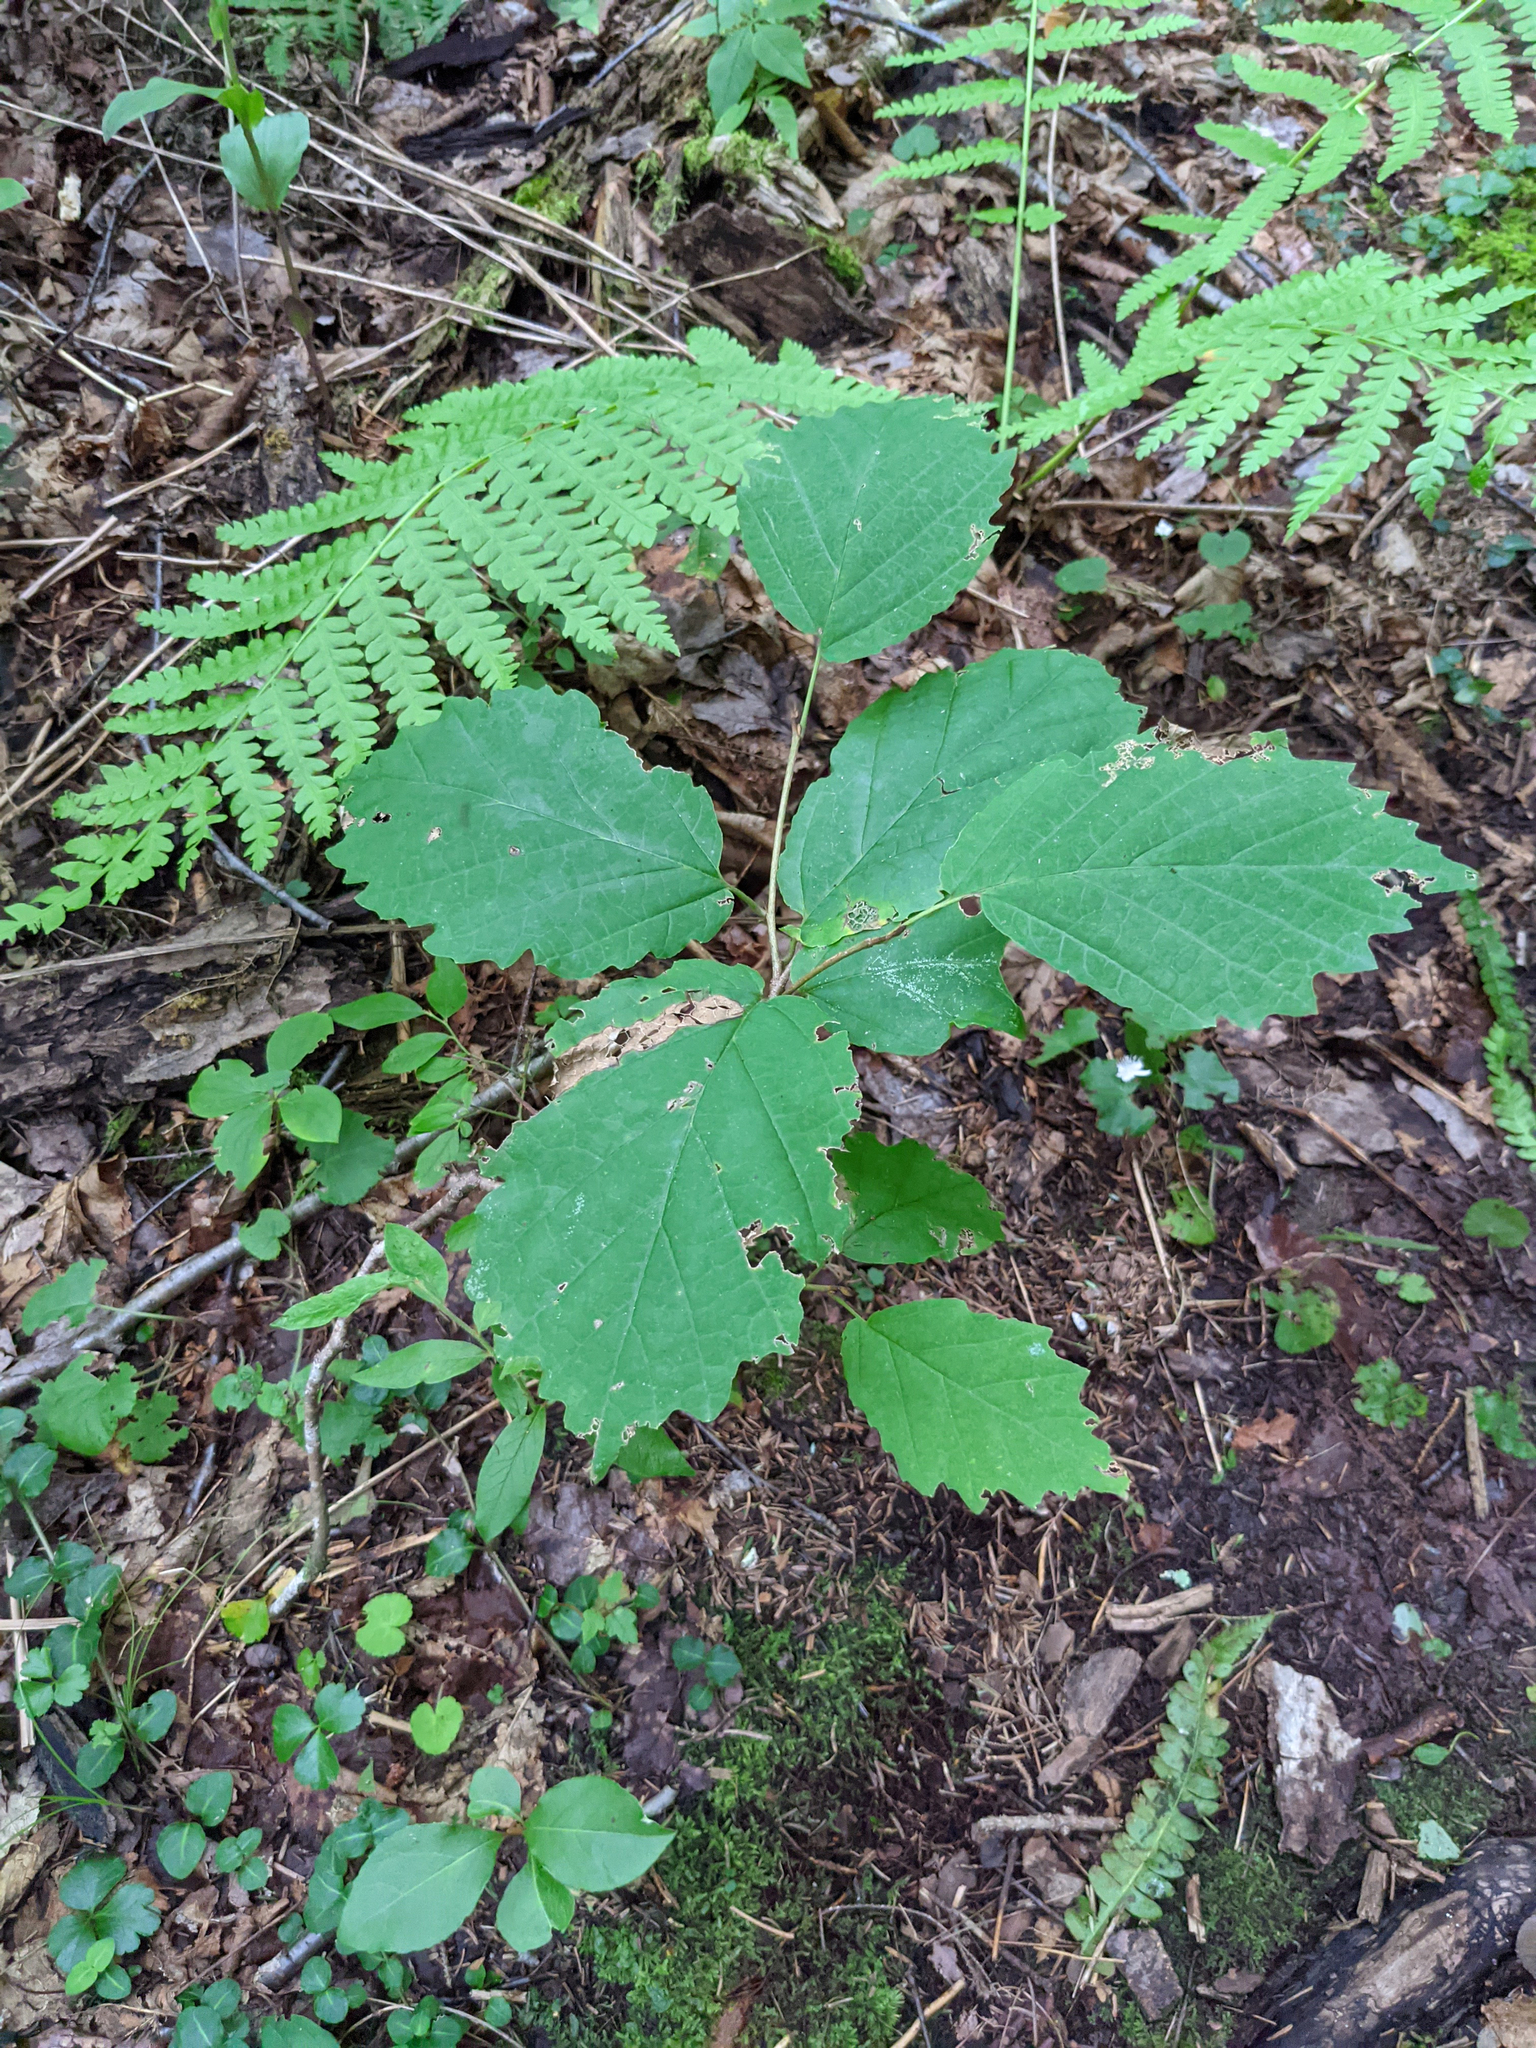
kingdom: Plantae
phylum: Tracheophyta
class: Magnoliopsida
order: Saxifragales
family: Hamamelidaceae
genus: Hamamelis
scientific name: Hamamelis virginiana
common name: Witch-hazel
